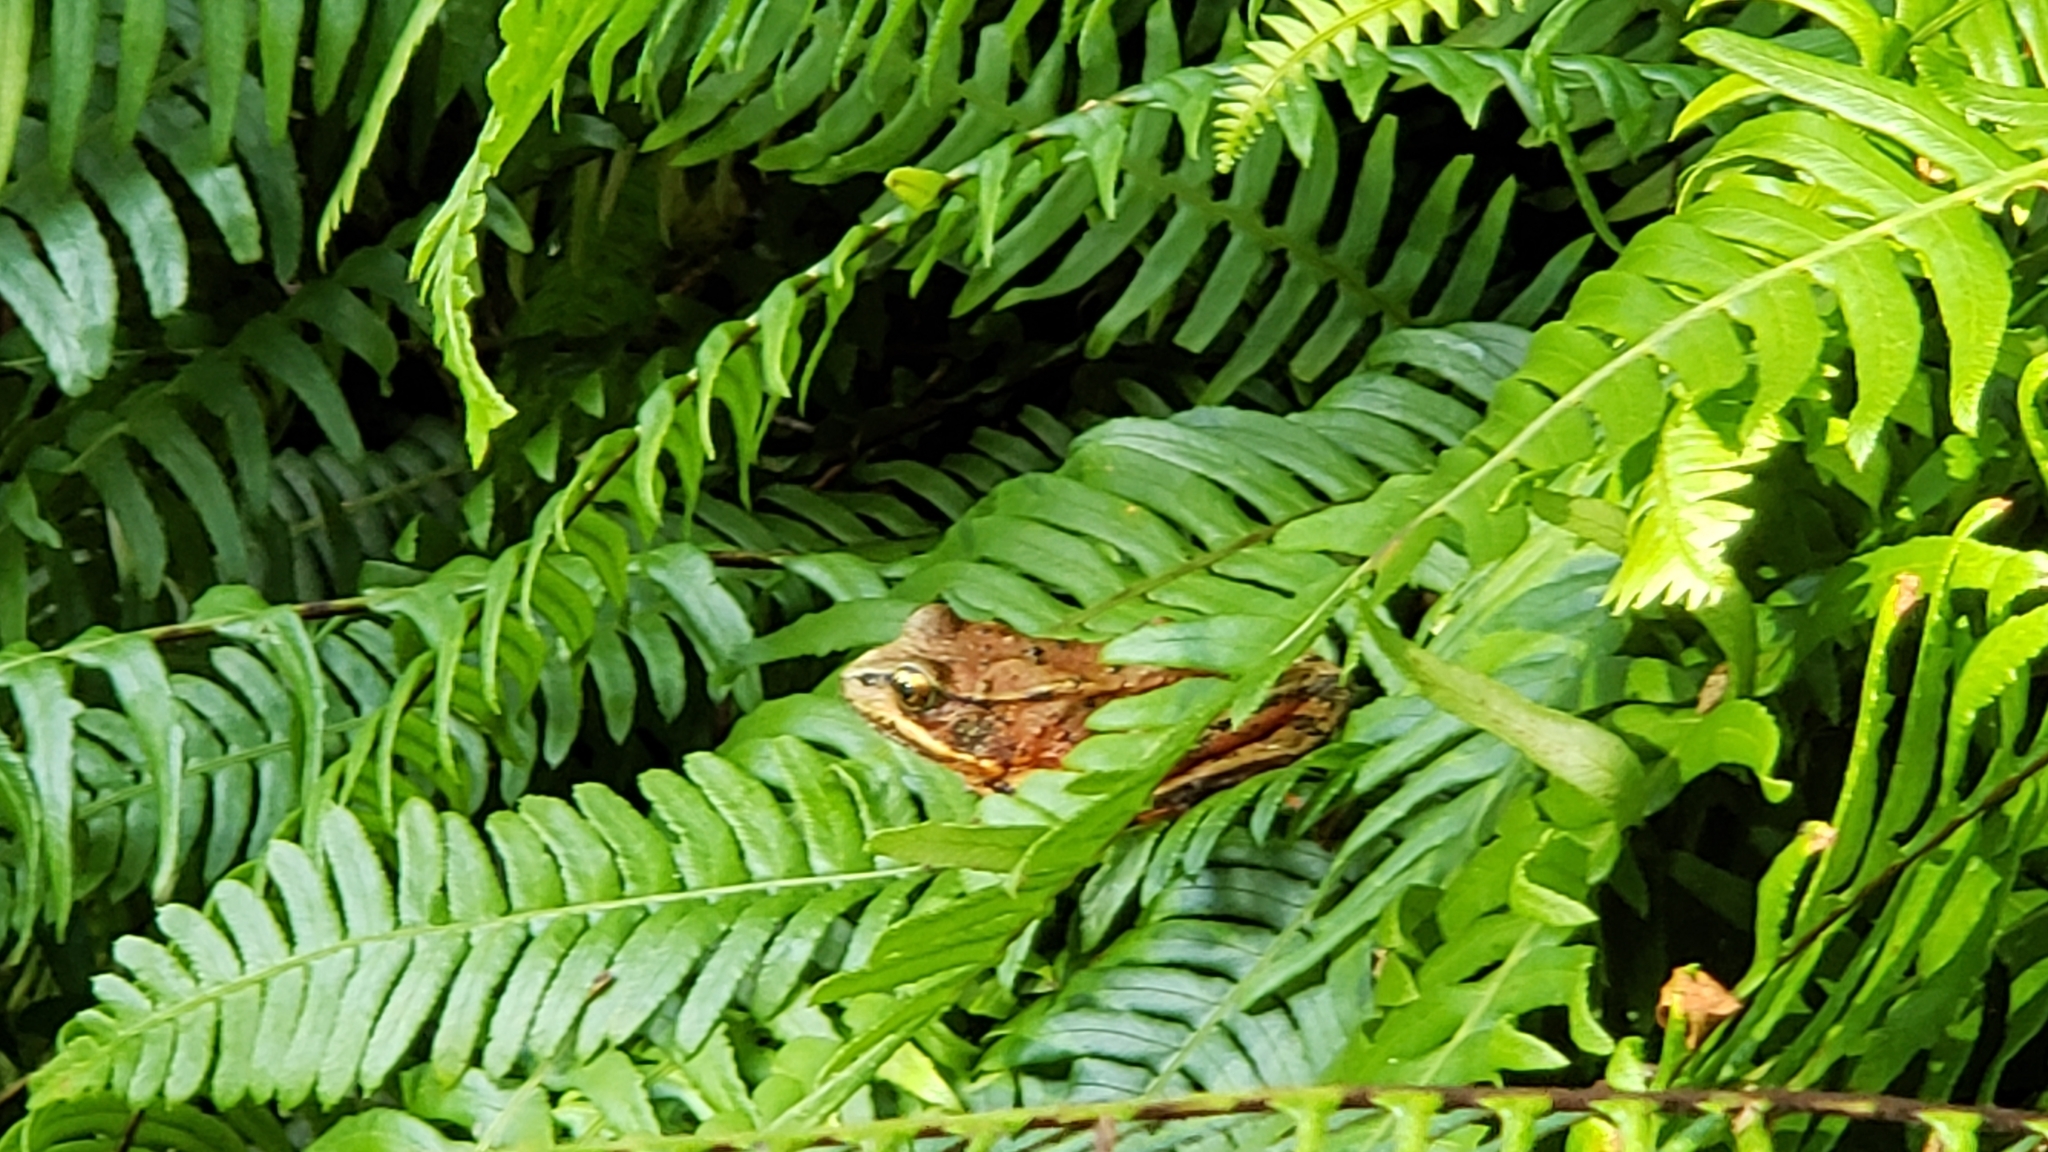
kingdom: Animalia
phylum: Chordata
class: Amphibia
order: Anura
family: Ranidae
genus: Rana
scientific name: Rana aurora
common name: Red-legged frog
